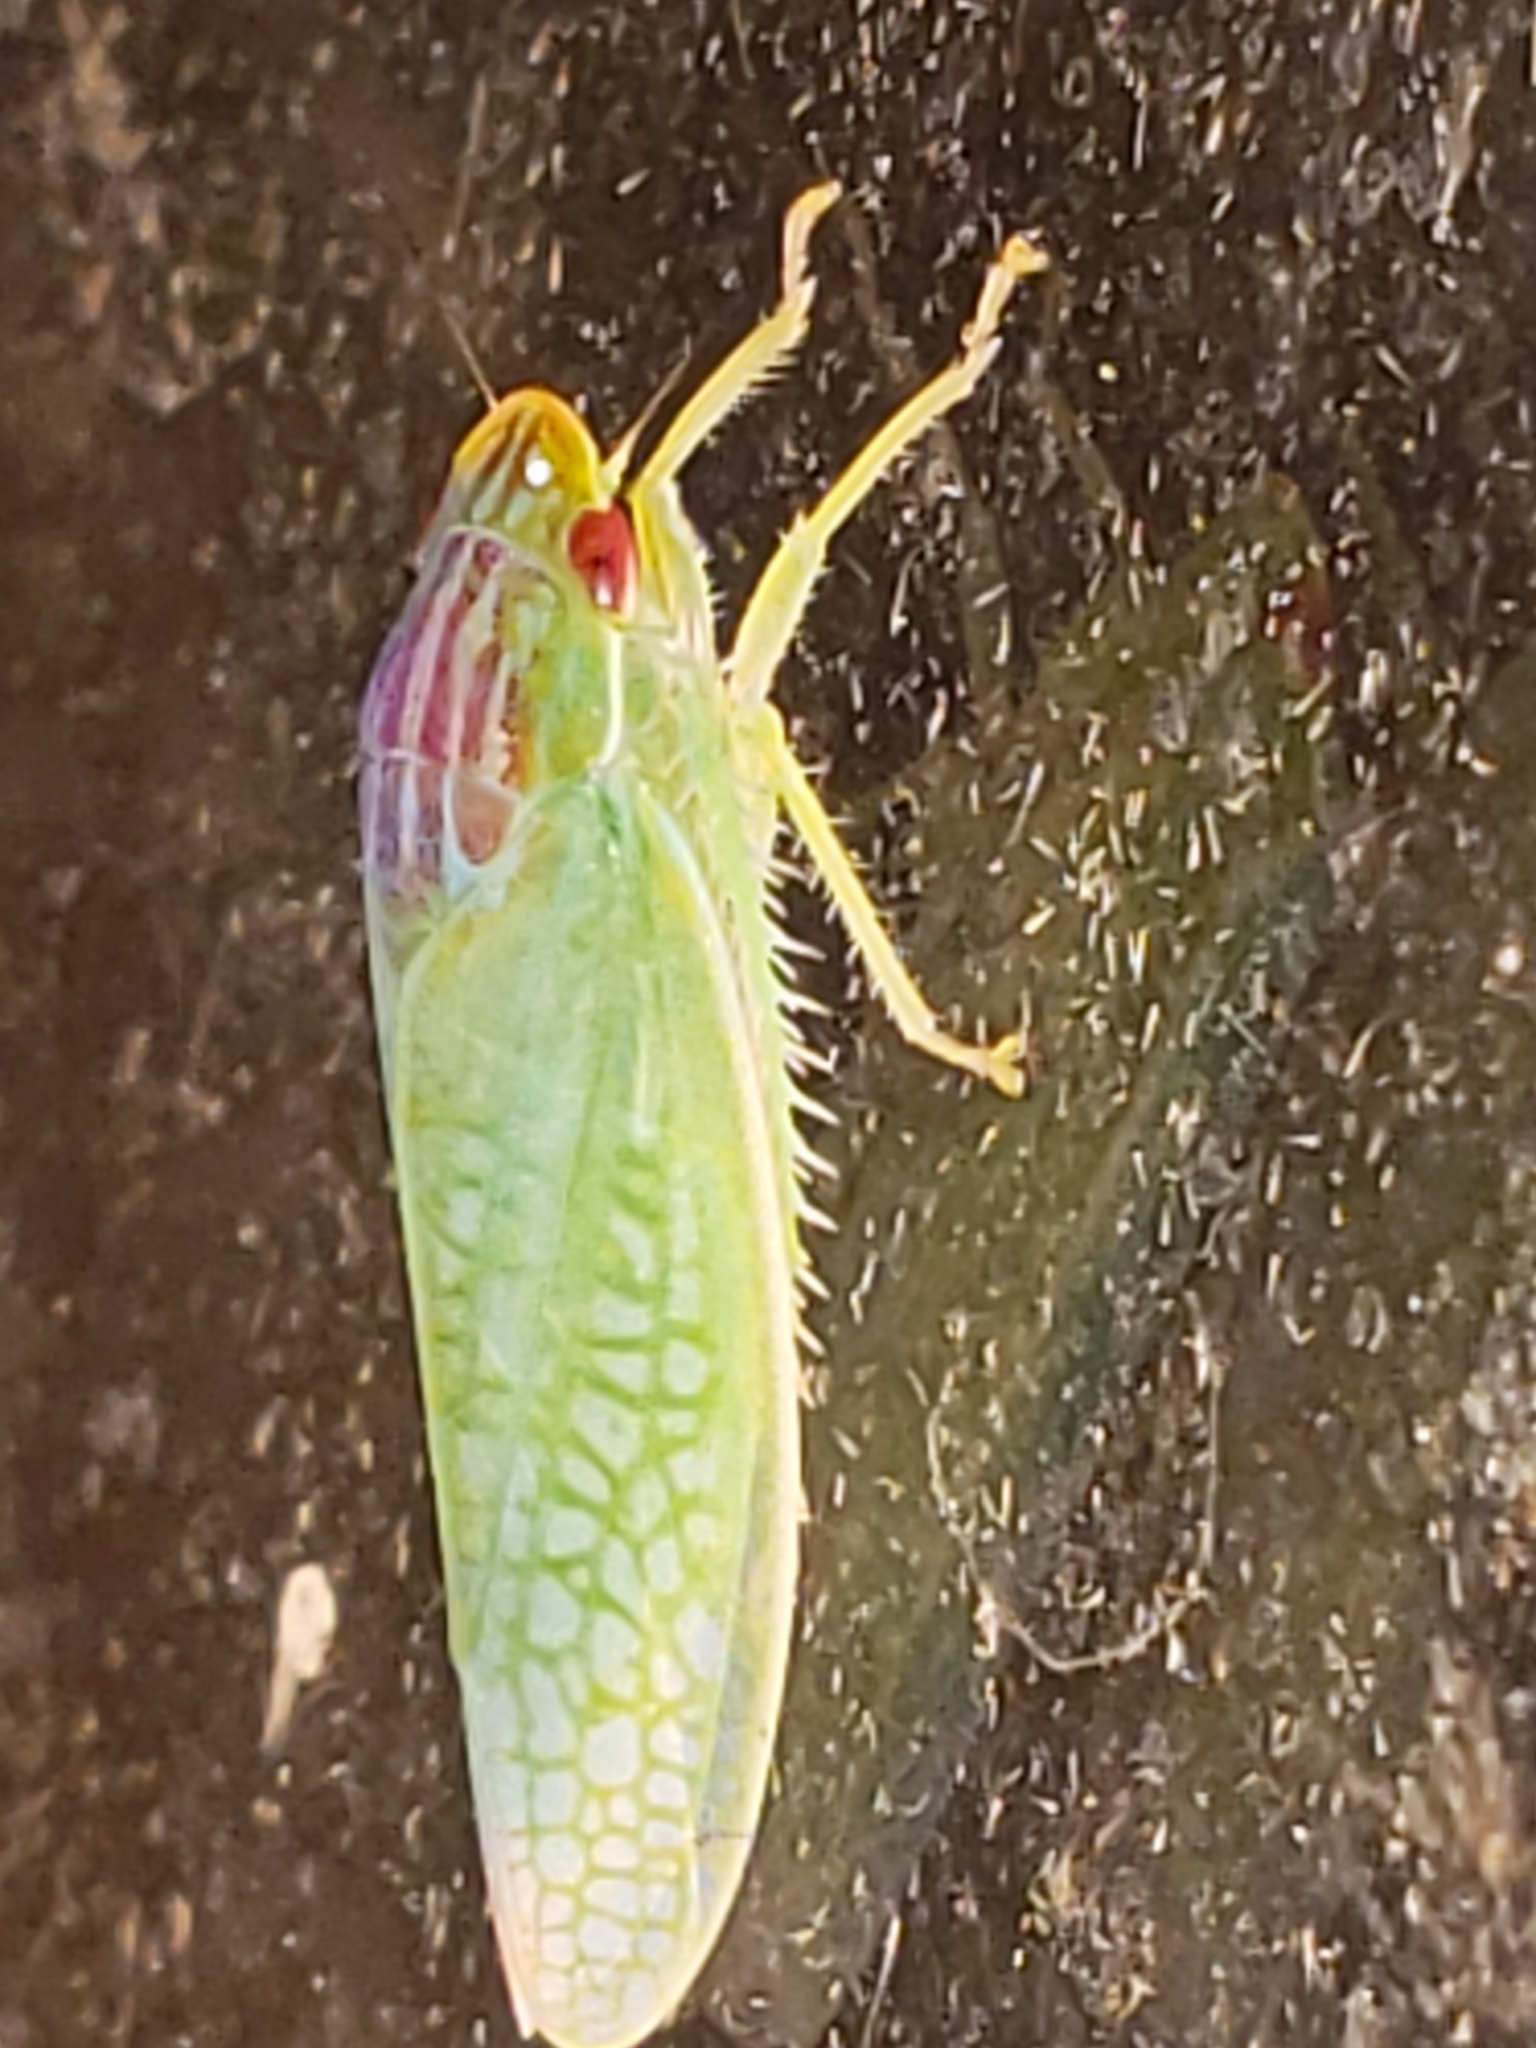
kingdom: Animalia
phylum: Arthropoda
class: Insecta
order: Hemiptera
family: Cicadellidae
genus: Gyponana
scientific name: Gyponana octolineata
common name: Eight-lined leafhopper
